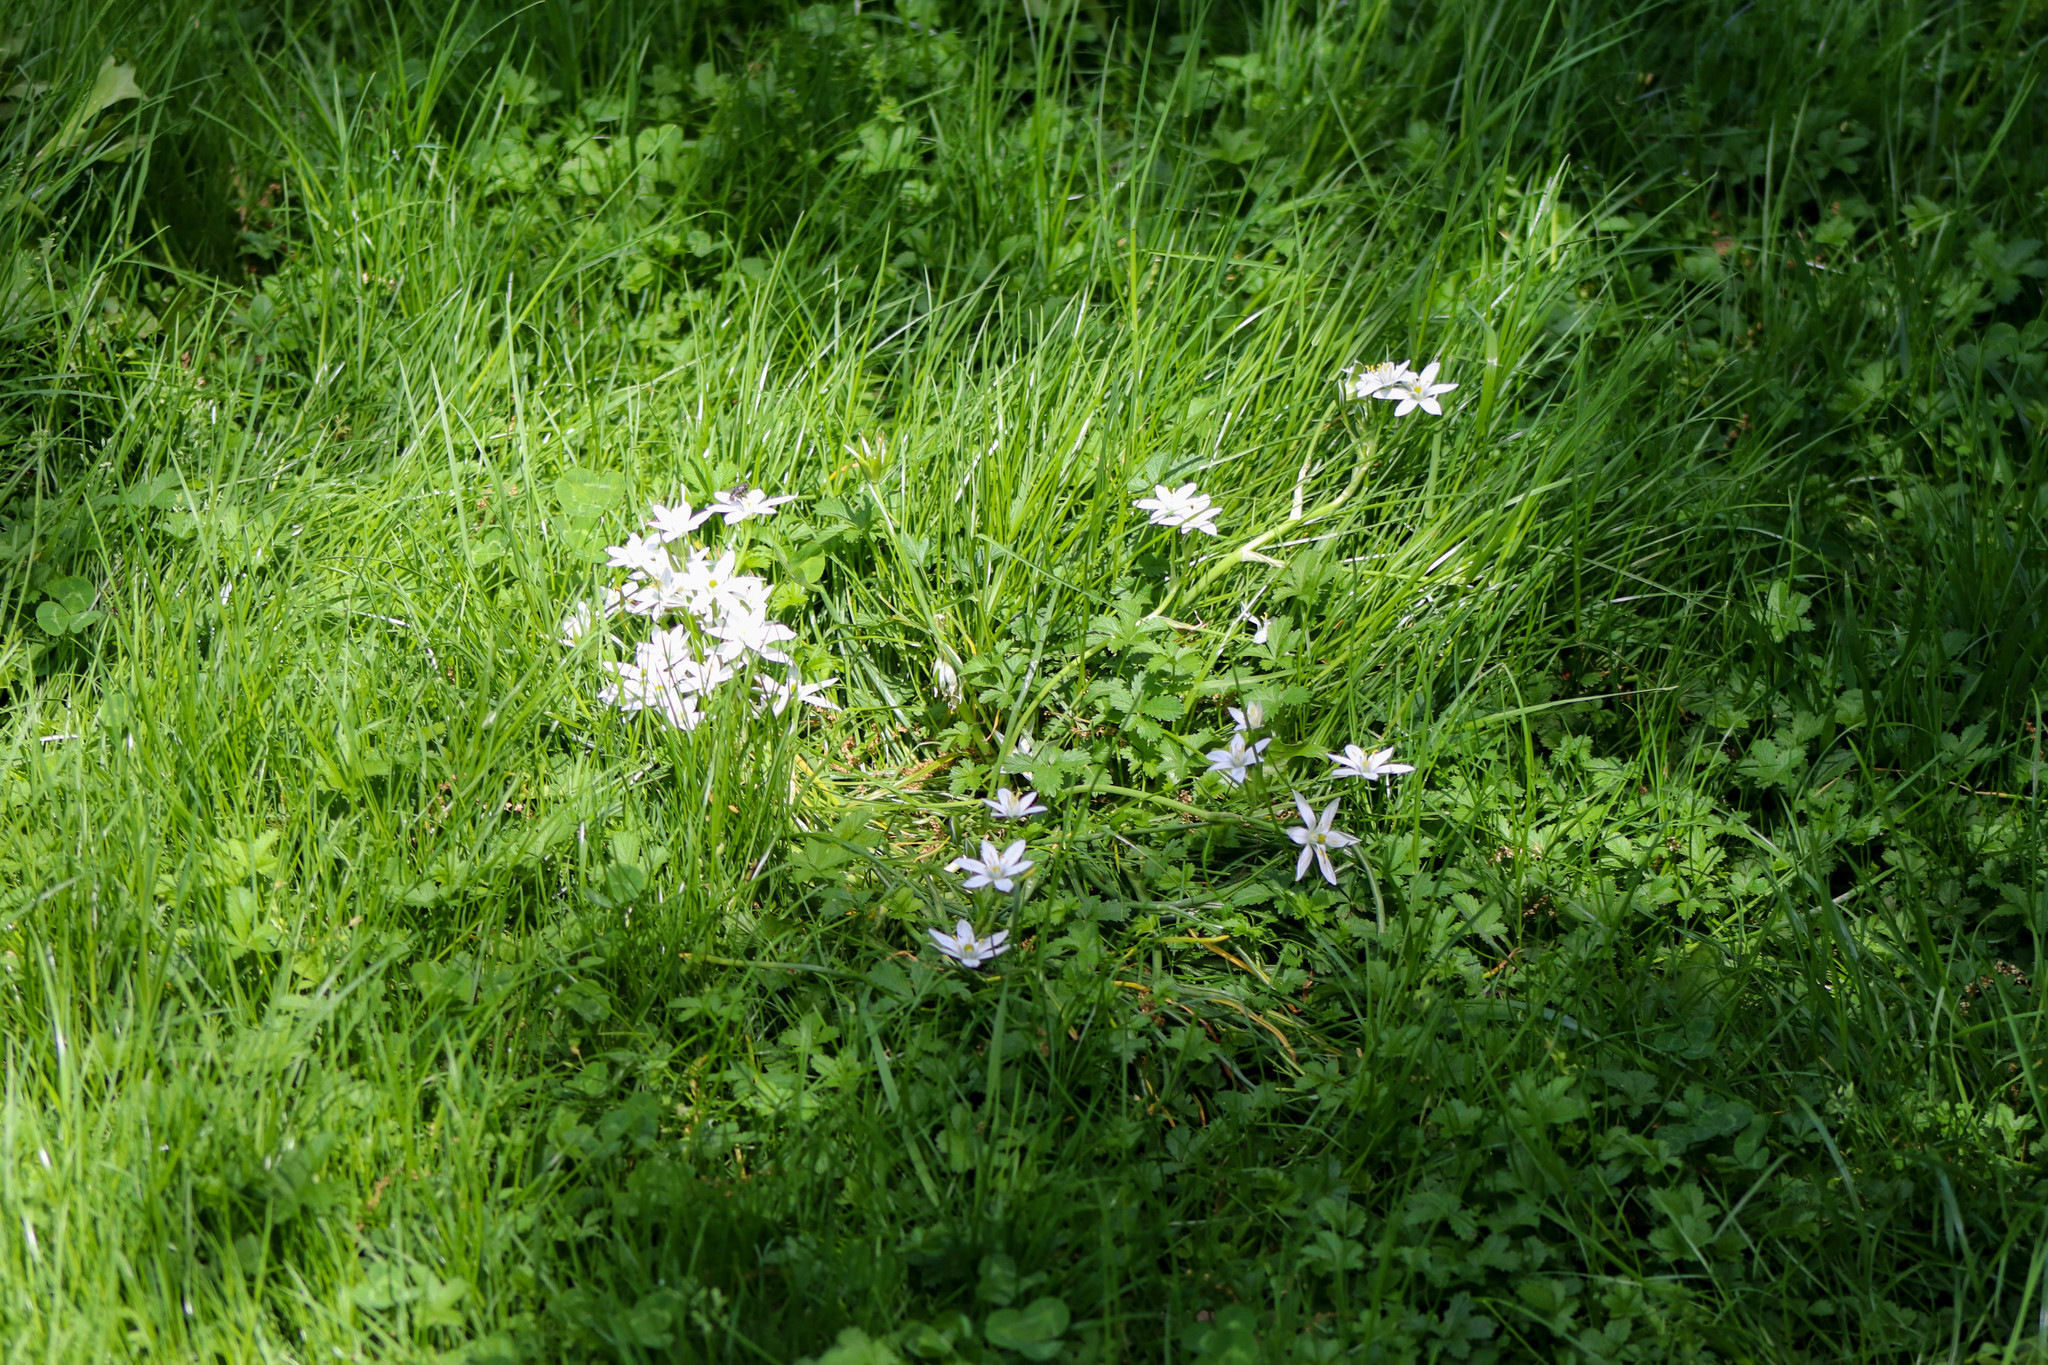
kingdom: Plantae
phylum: Tracheophyta
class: Liliopsida
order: Asparagales
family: Asparagaceae
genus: Ornithogalum
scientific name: Ornithogalum umbellatum
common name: Garden star-of-bethlehem
